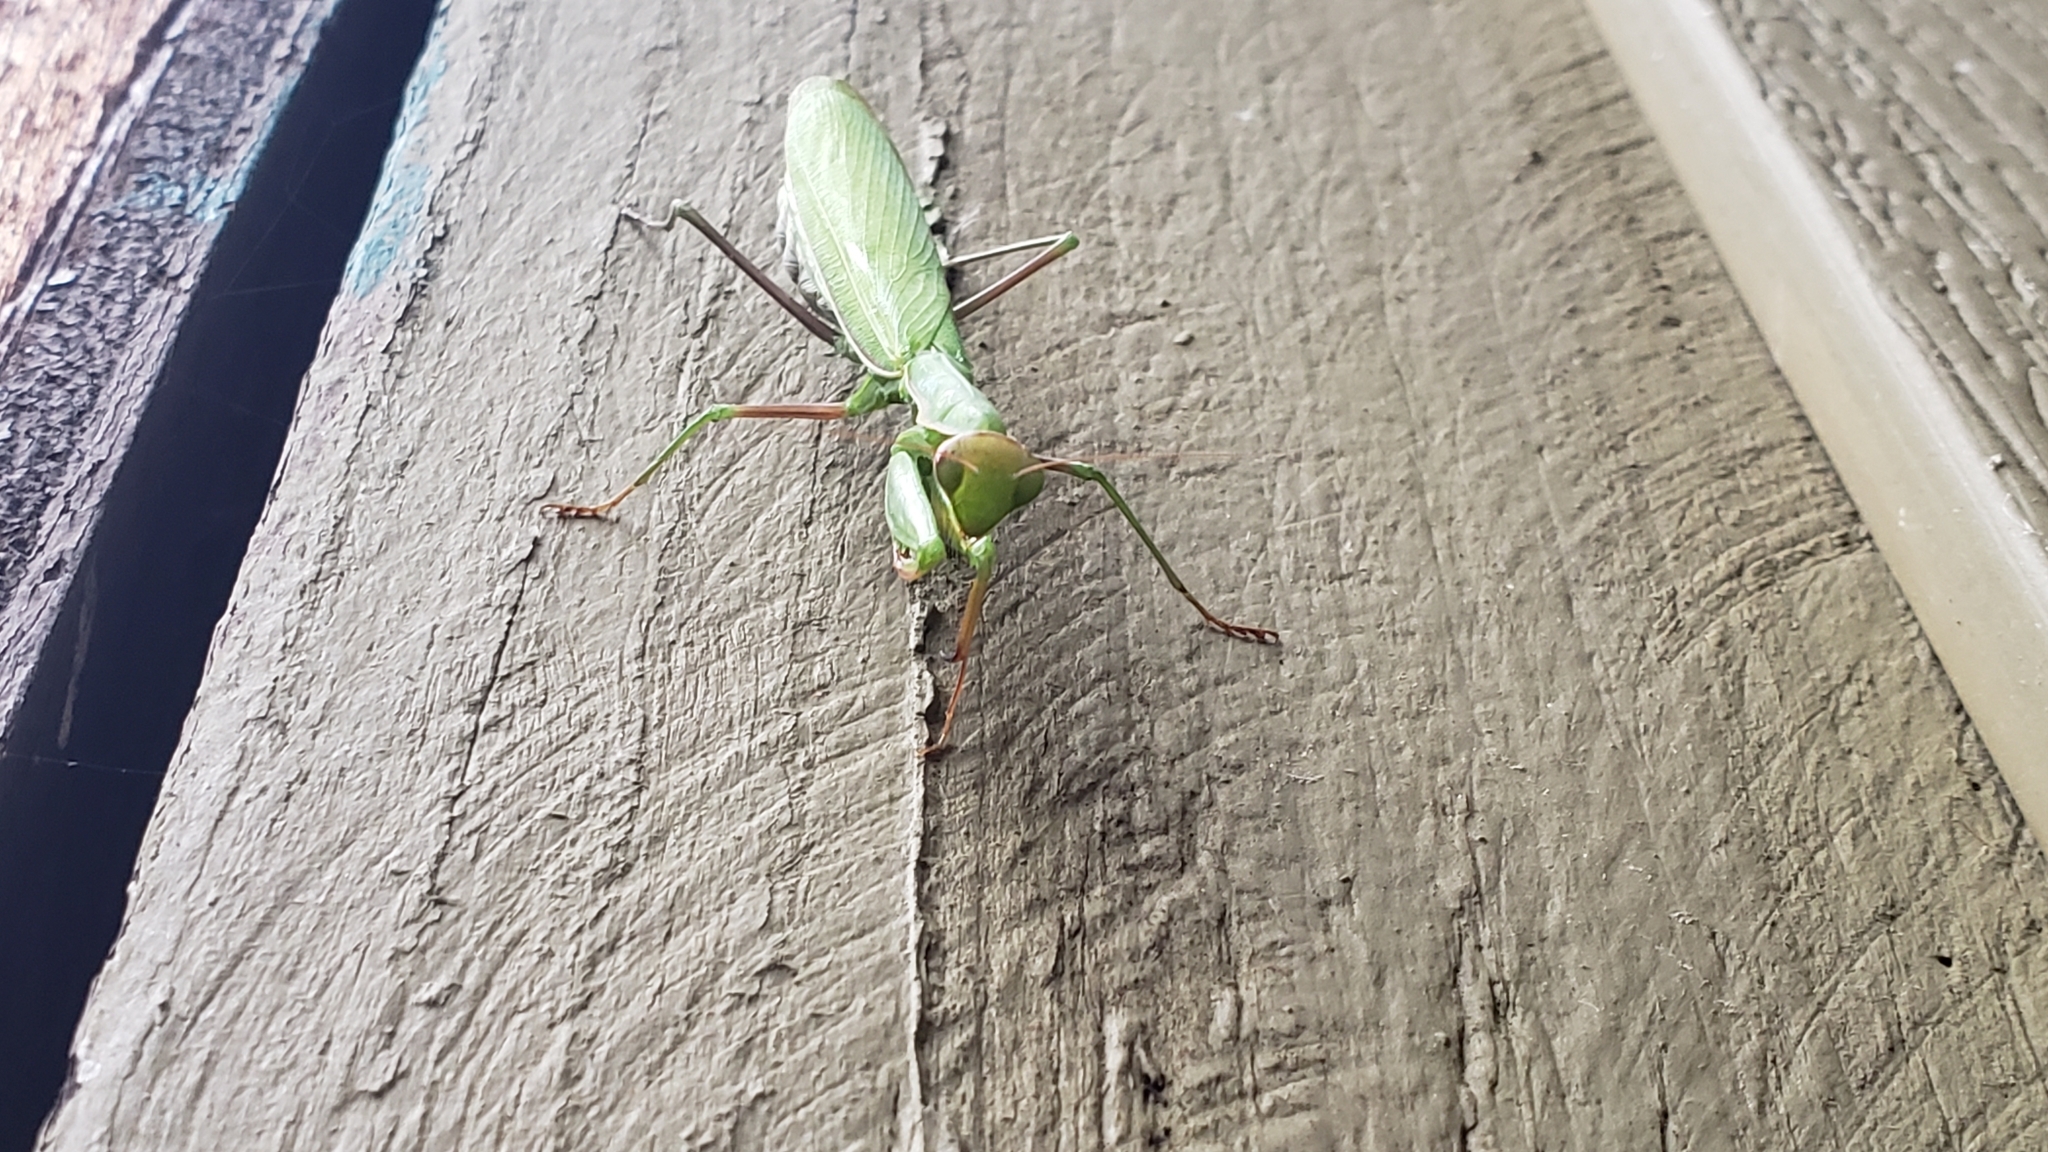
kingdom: Animalia
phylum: Arthropoda
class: Insecta
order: Mantodea
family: Mantidae
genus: Mantis
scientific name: Mantis religiosa
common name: Praying mantis
